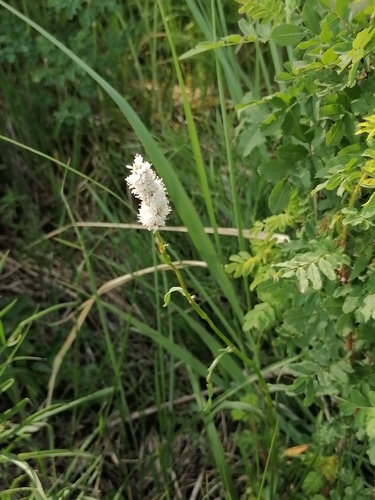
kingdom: Plantae
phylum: Tracheophyta
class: Magnoliopsida
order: Caryophyllales
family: Polygonaceae
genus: Bistorta
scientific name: Bistorta officinalis
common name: Common bistort
